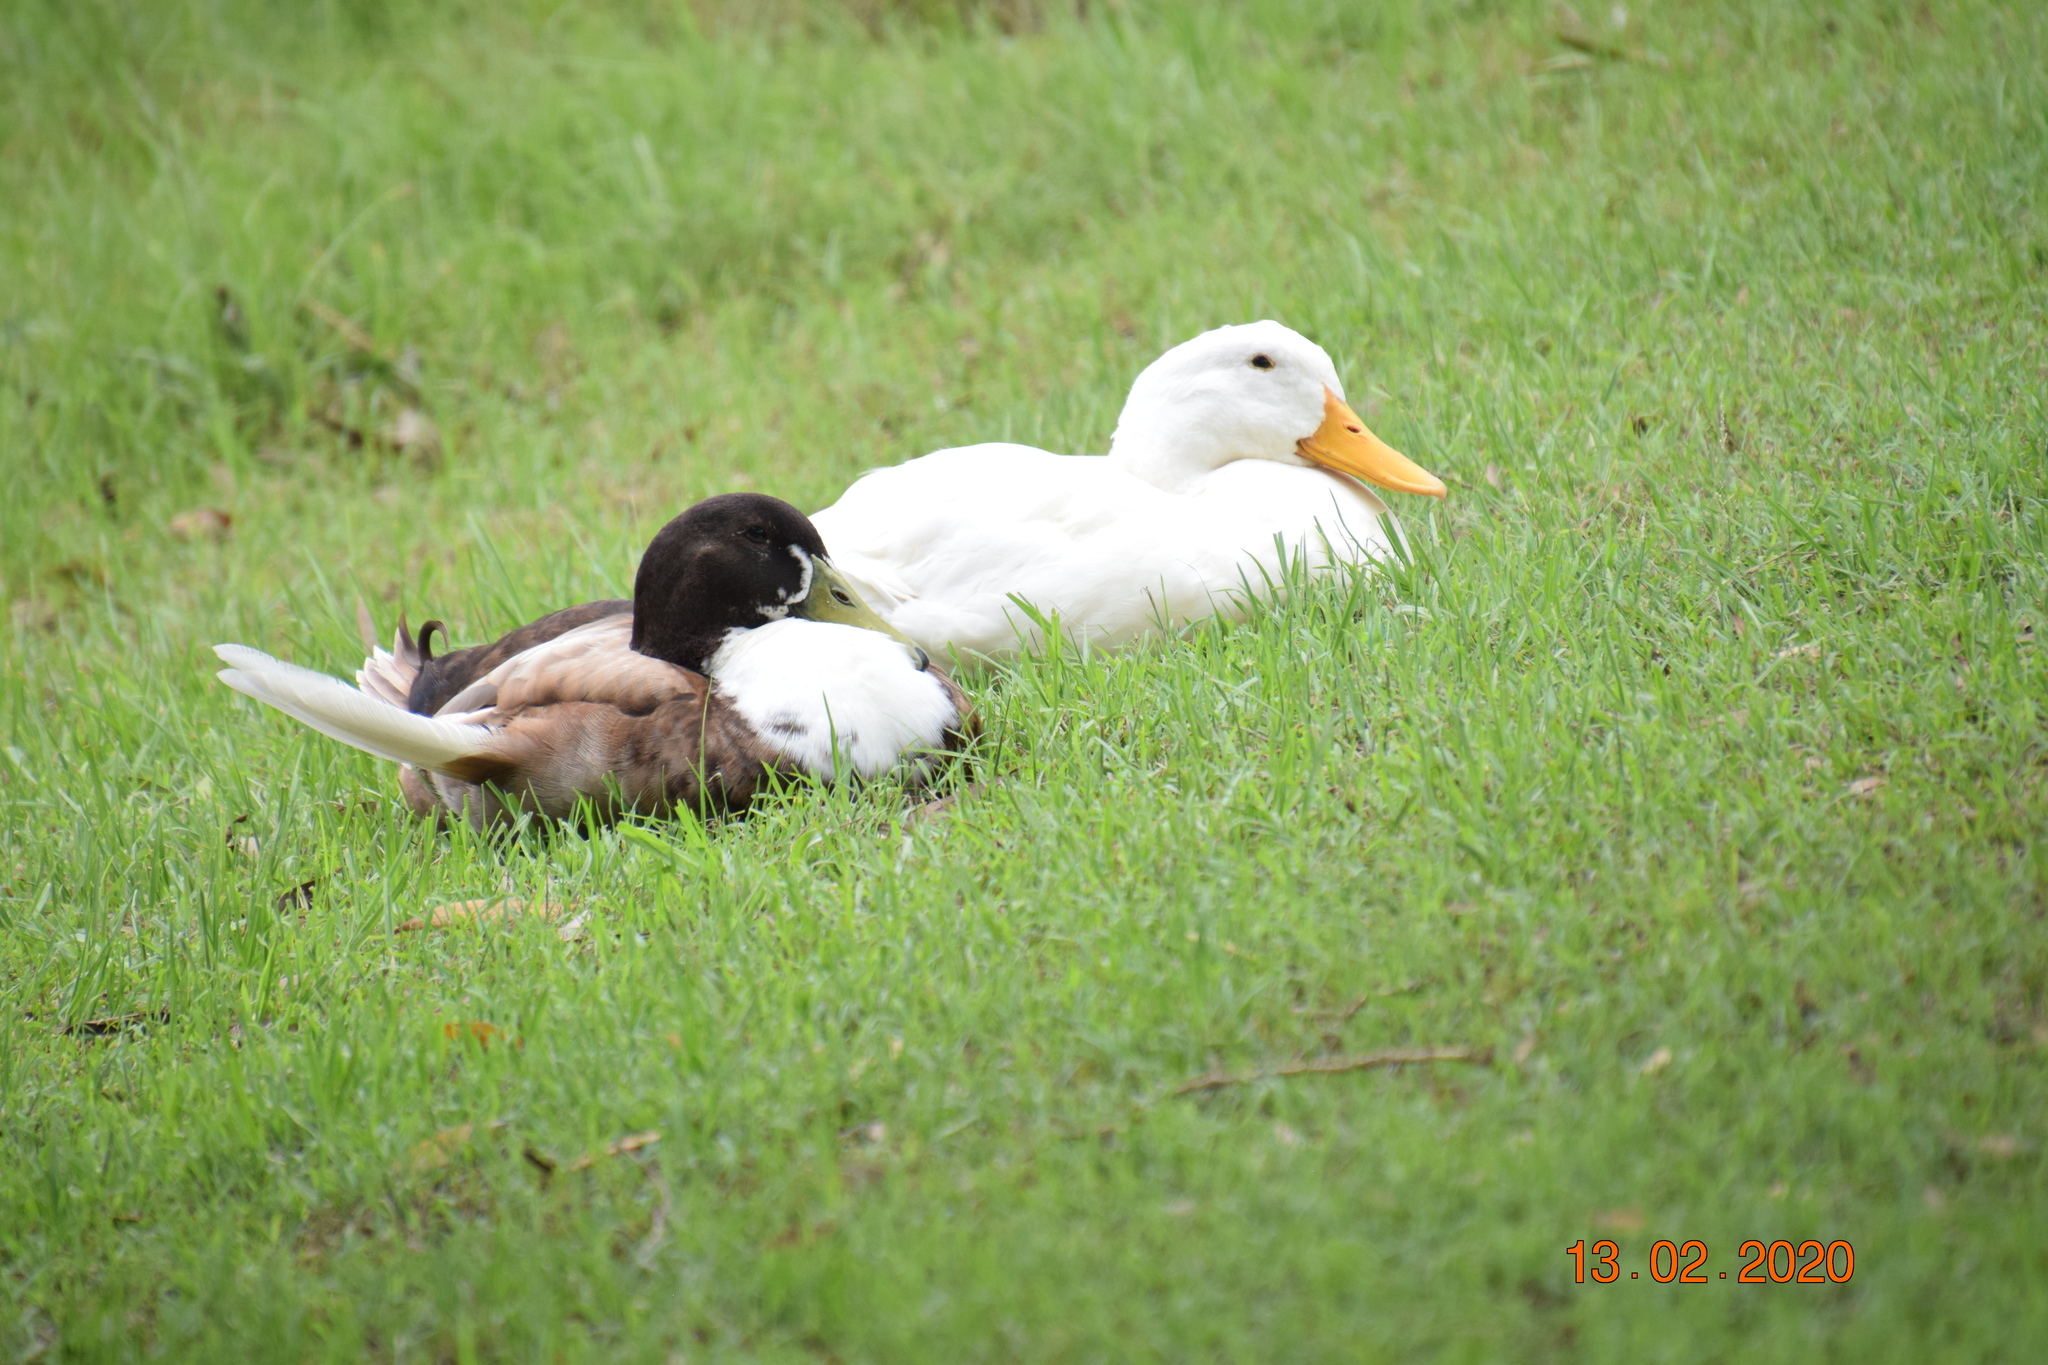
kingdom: Animalia
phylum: Chordata
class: Aves
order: Anseriformes
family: Anatidae
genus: Anas
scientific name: Anas platyrhynchos
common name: Mallard
